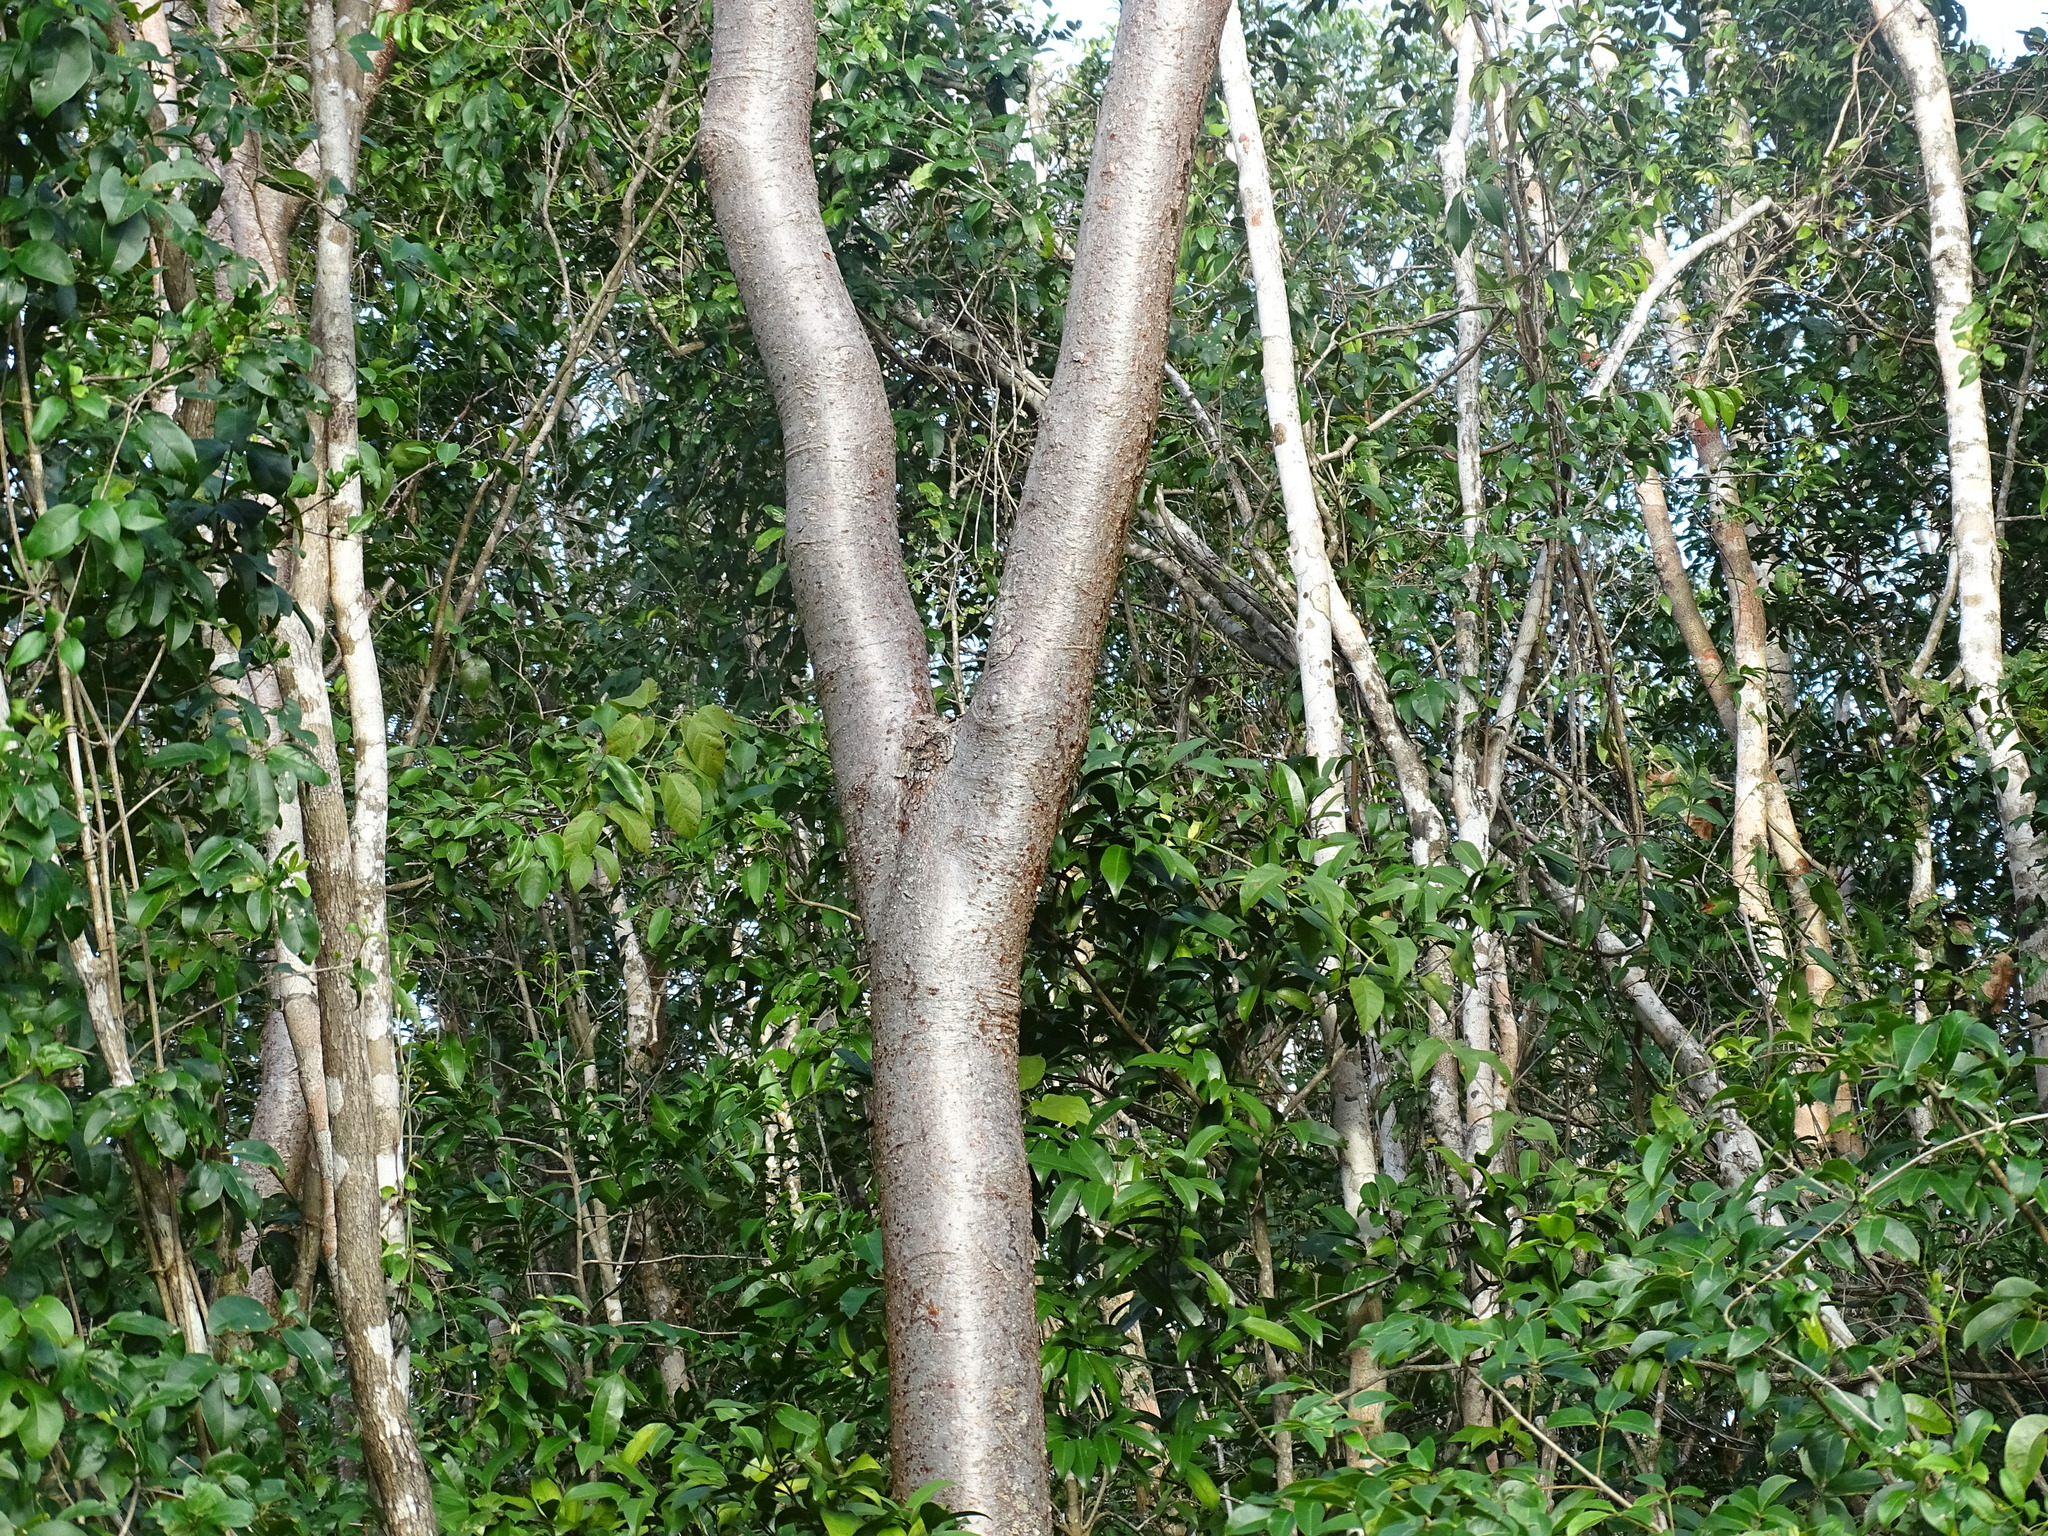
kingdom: Plantae
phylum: Tracheophyta
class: Magnoliopsida
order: Sapindales
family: Burseraceae
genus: Bursera
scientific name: Bursera simaruba
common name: Turpentine tree
